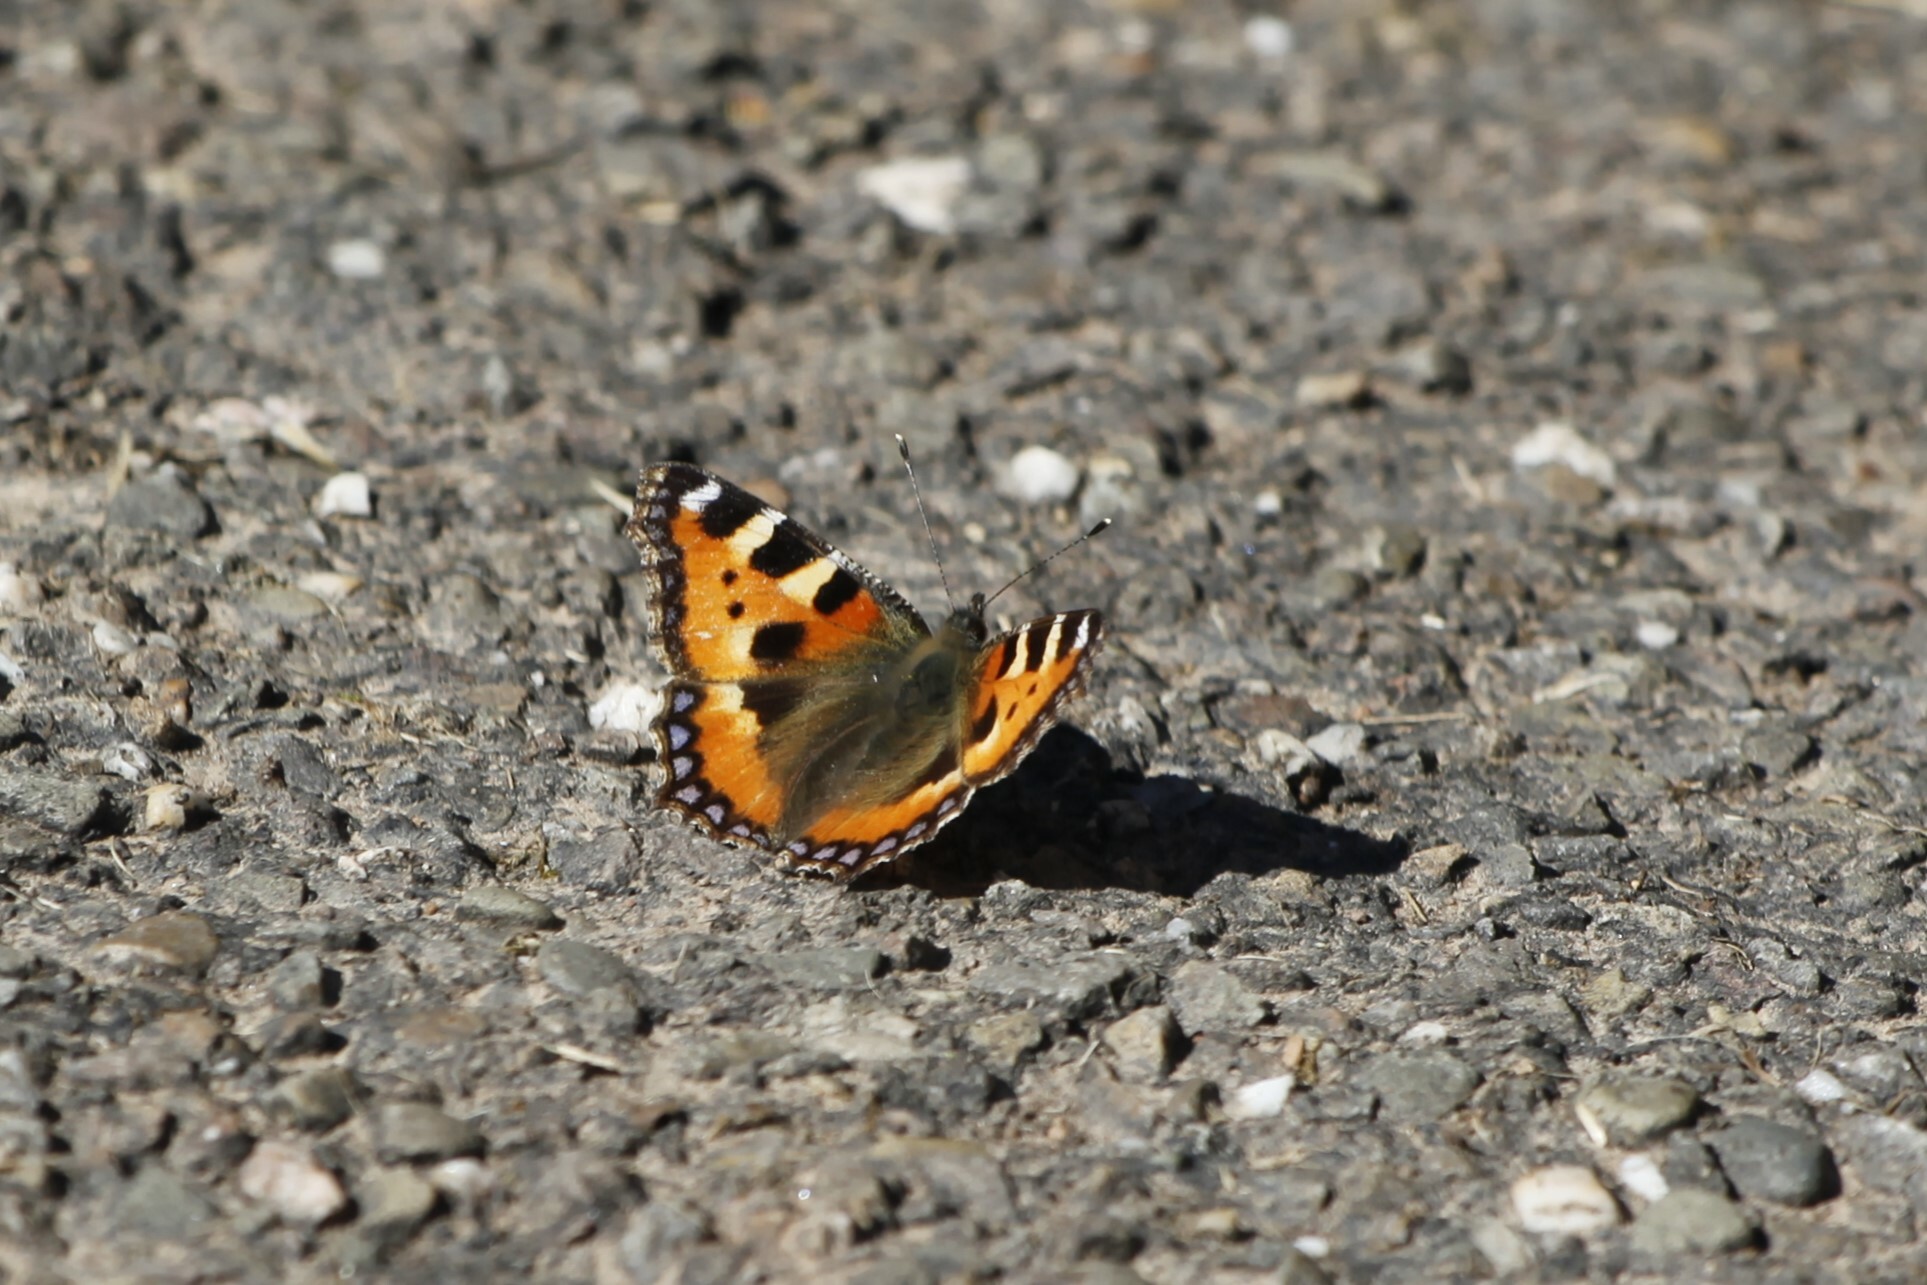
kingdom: Animalia
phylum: Arthropoda
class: Insecta
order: Lepidoptera
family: Nymphalidae
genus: Aglais
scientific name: Aglais urticae
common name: Small tortoiseshell
